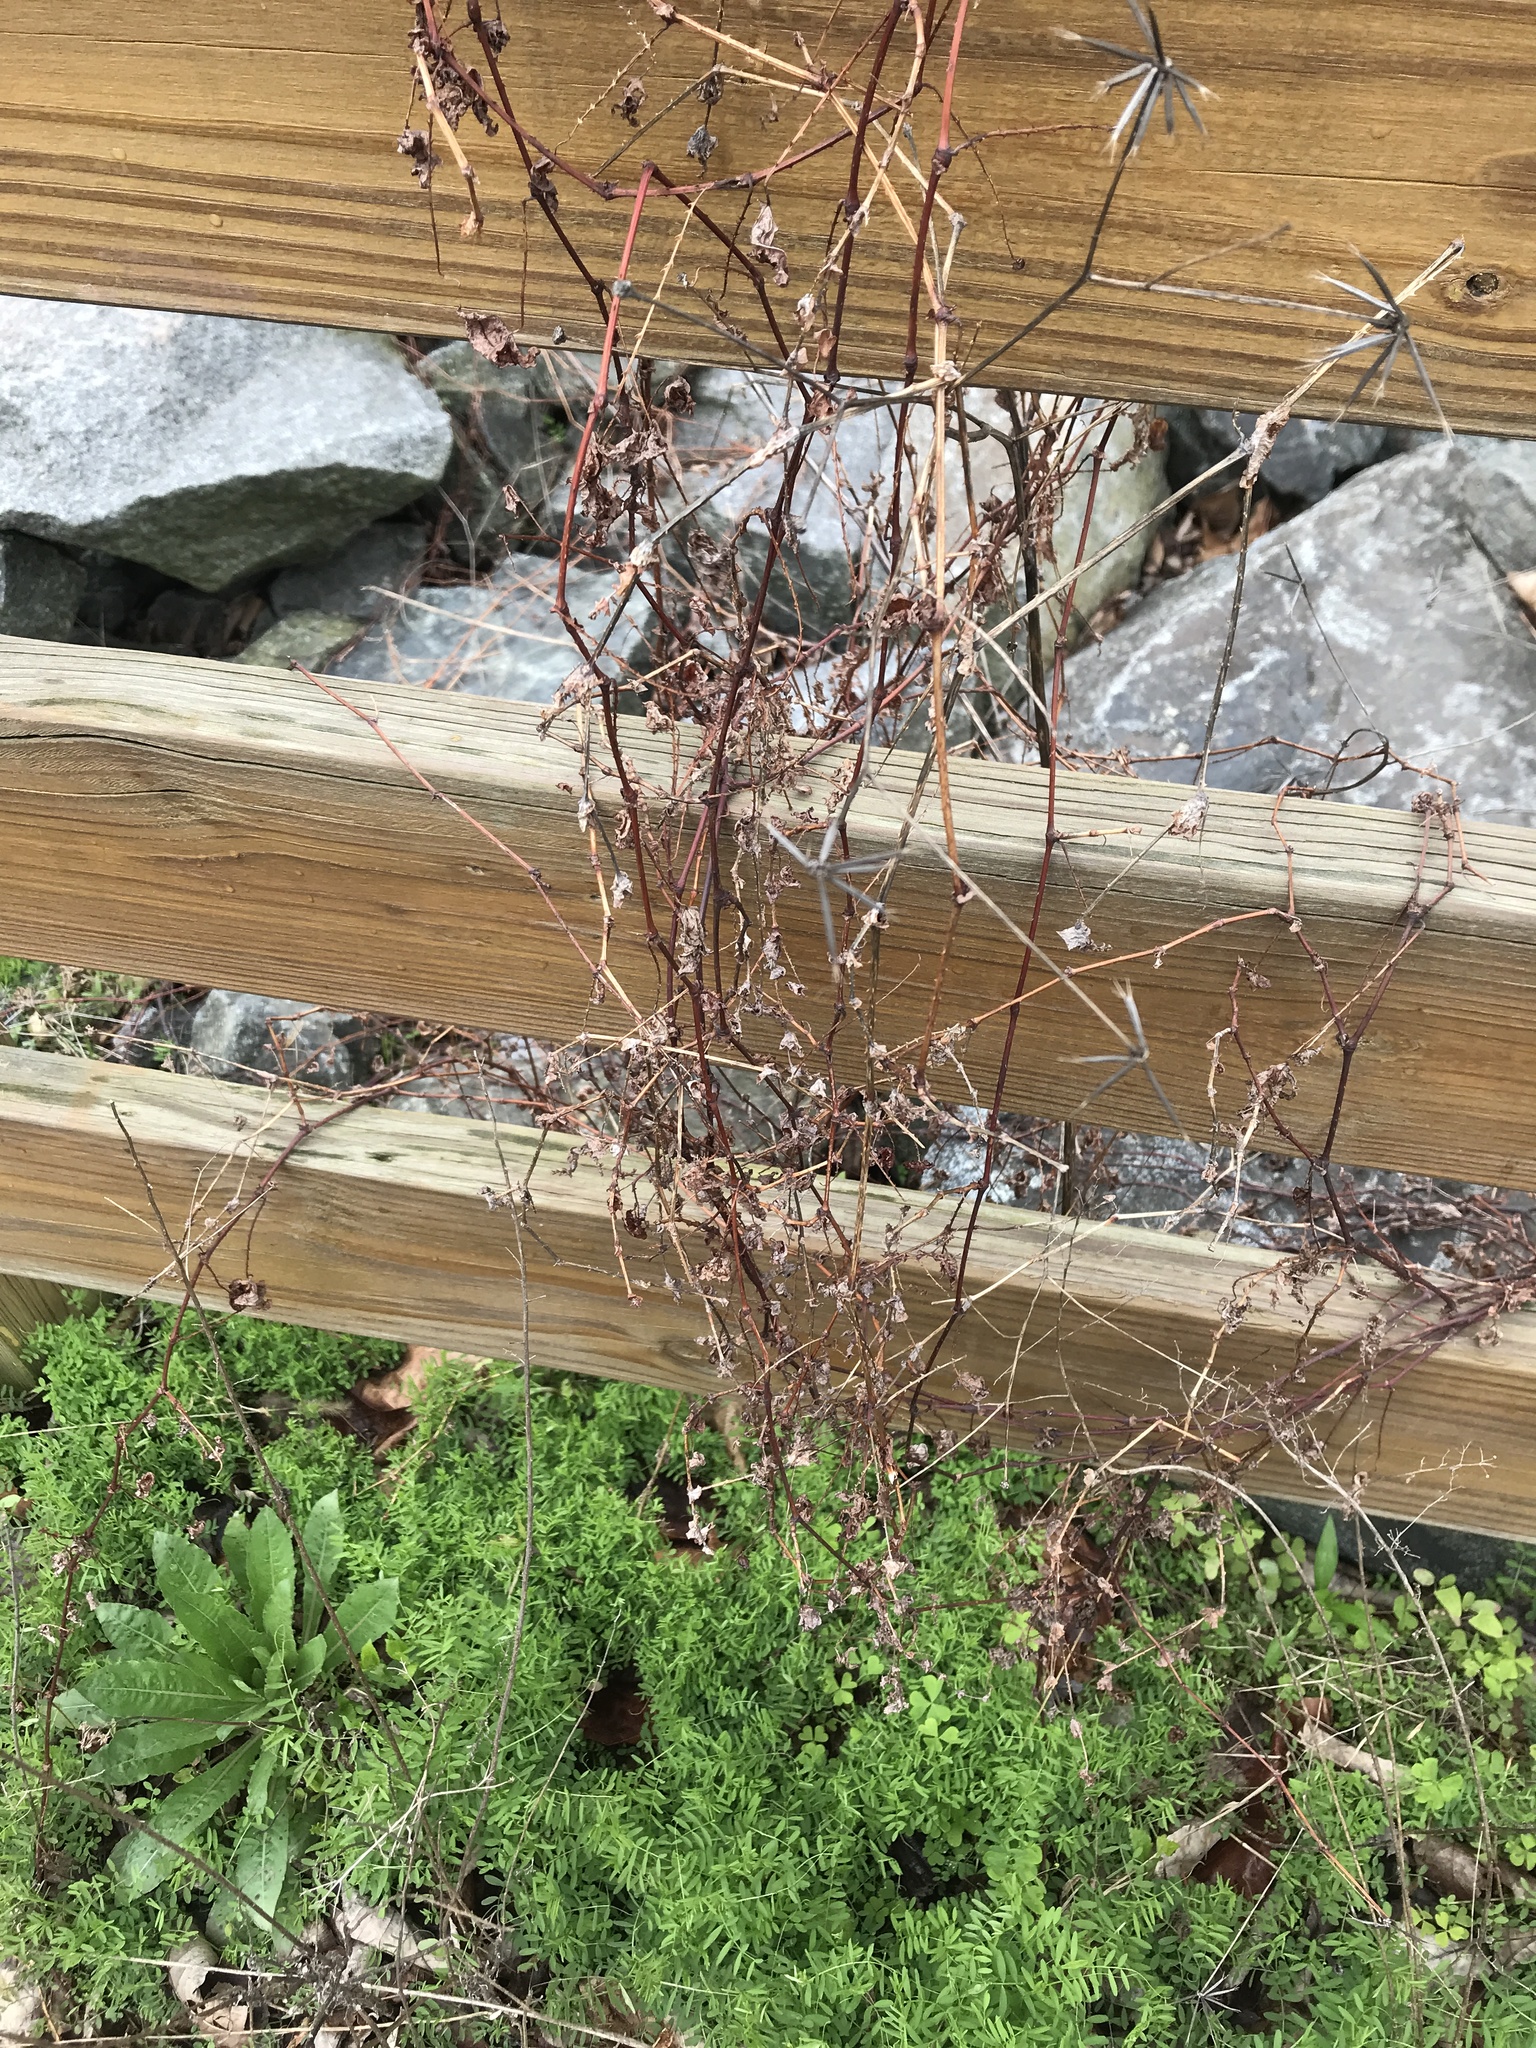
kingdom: Plantae
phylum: Tracheophyta
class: Magnoliopsida
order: Caryophyllales
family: Polygonaceae
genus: Persicaria
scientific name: Persicaria perfoliata
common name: Asiatic tearthumb
